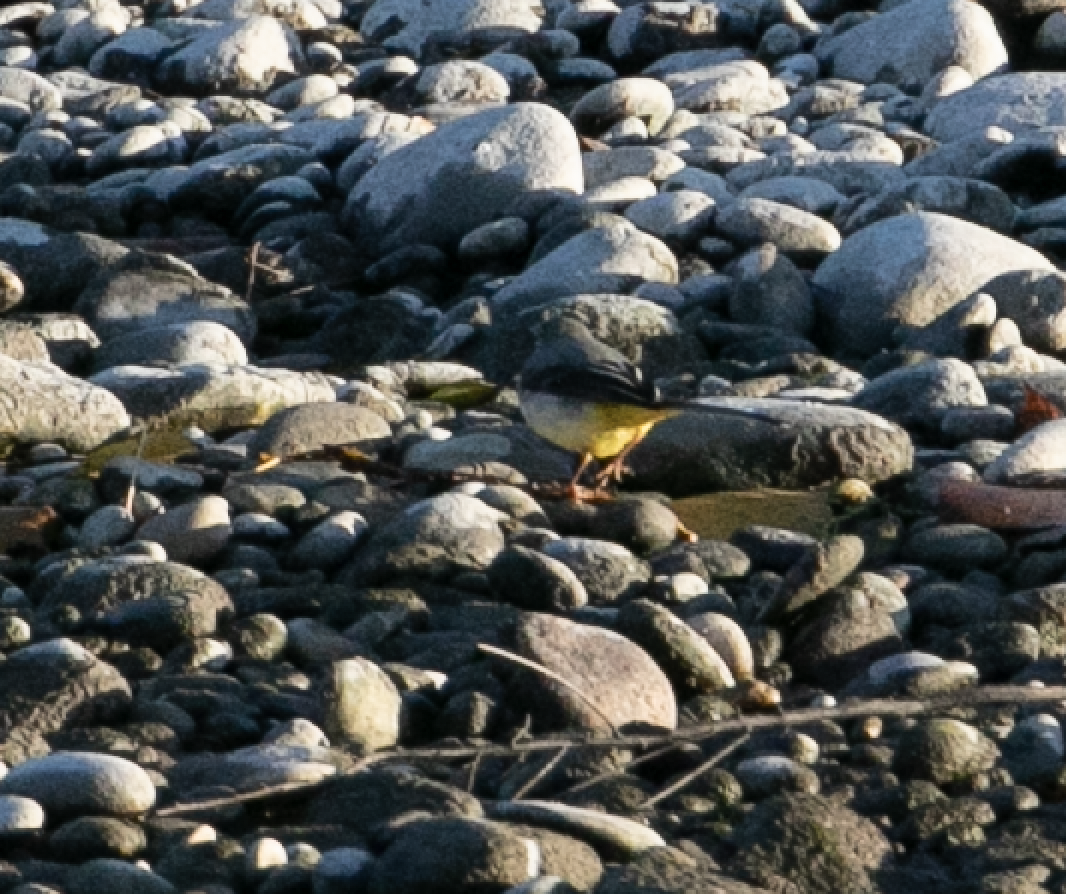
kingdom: Animalia
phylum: Chordata
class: Aves
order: Passeriformes
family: Motacillidae
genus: Motacilla
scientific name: Motacilla cinerea
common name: Grey wagtail
